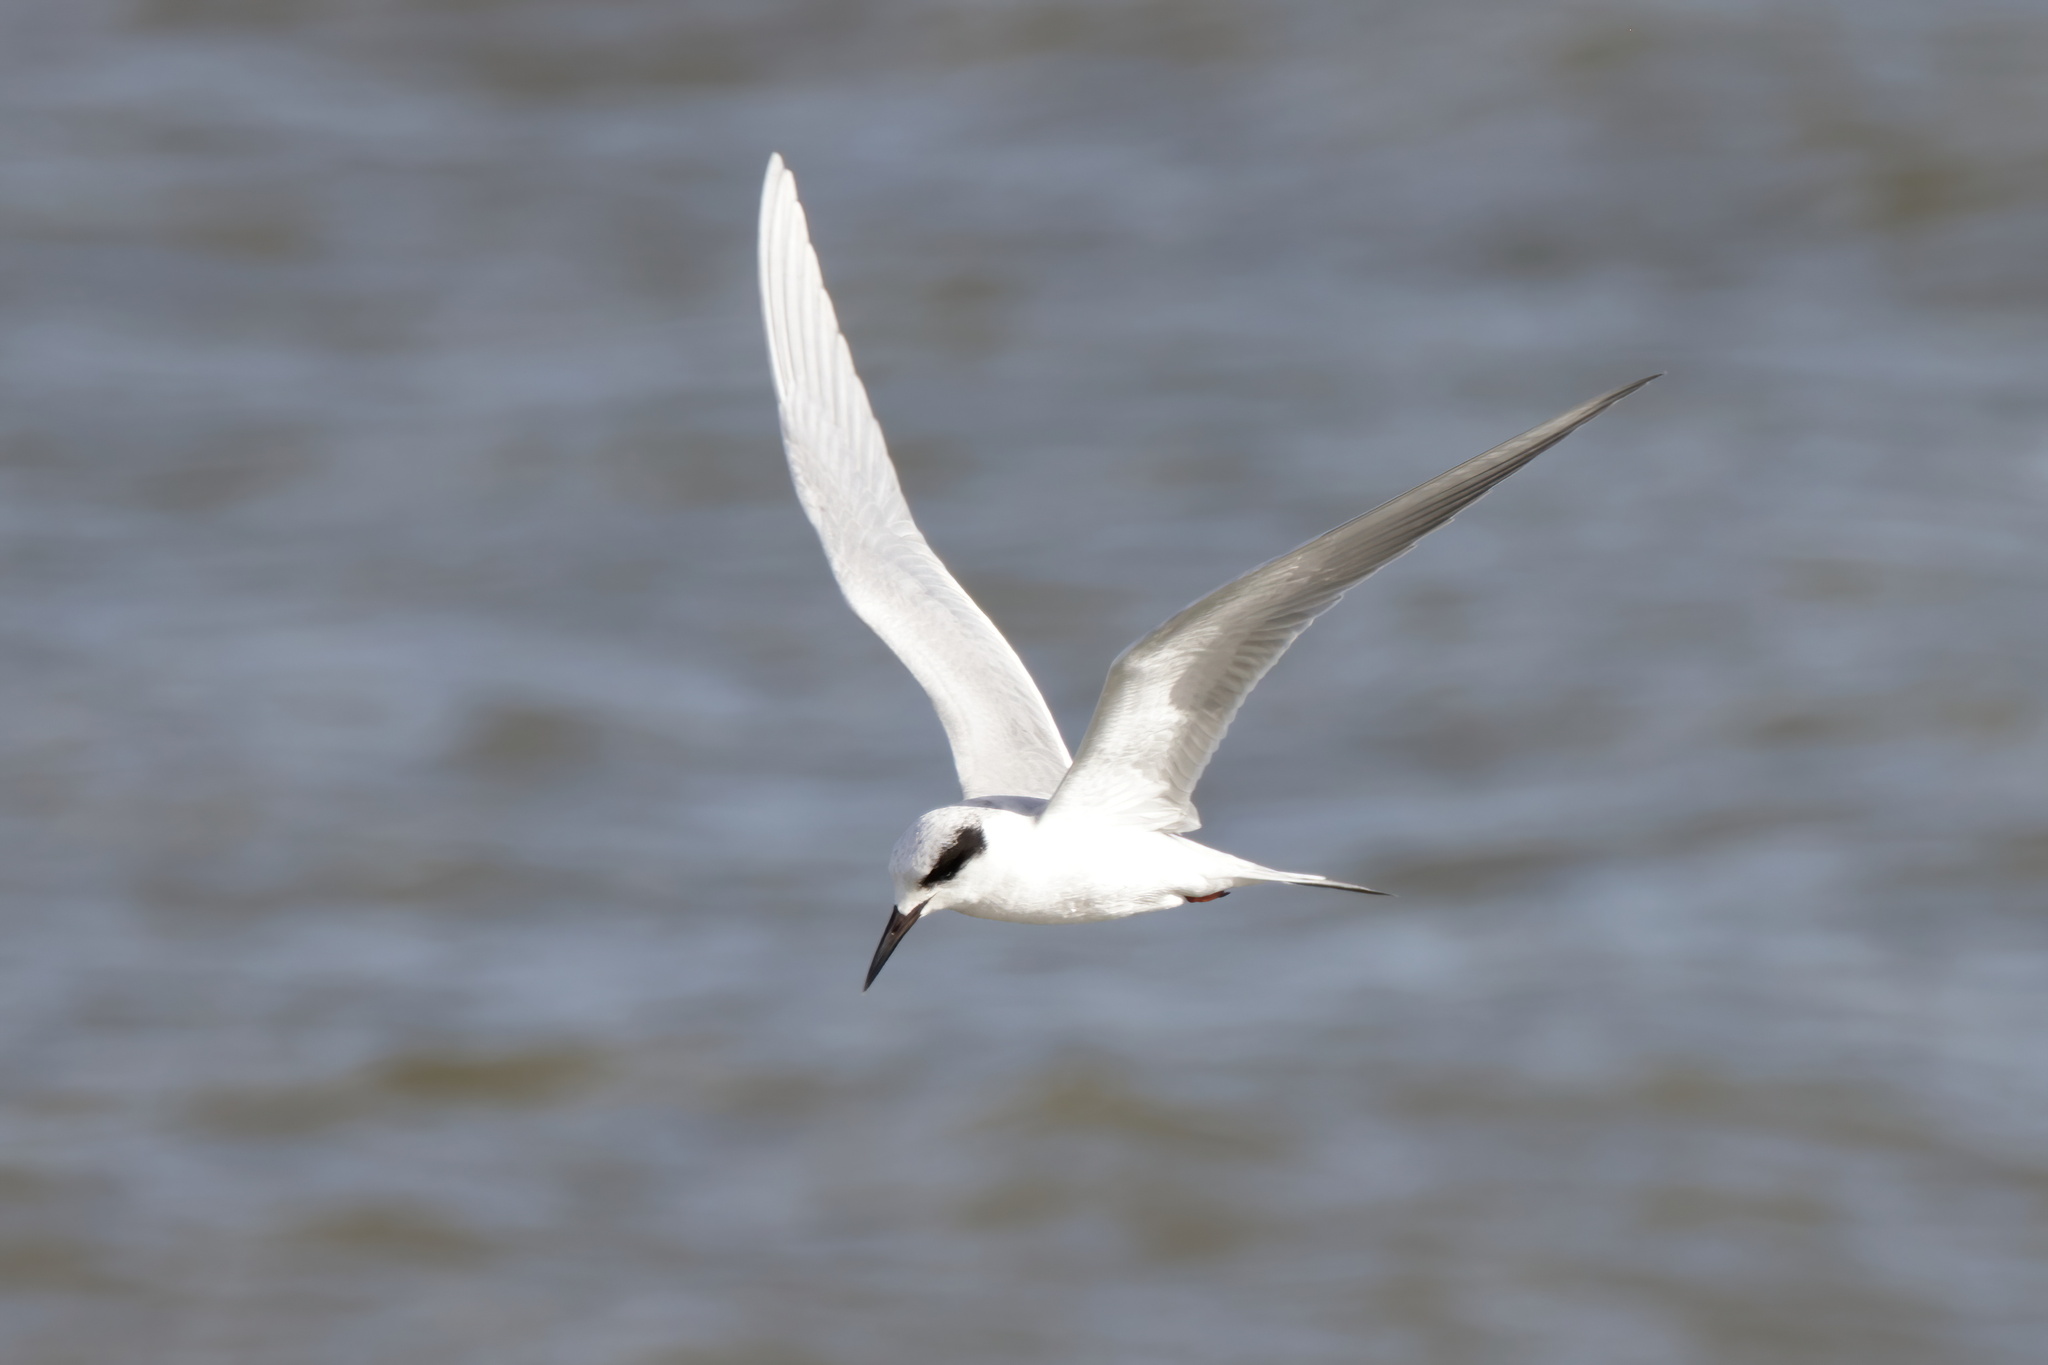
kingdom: Animalia
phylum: Chordata
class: Aves
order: Charadriiformes
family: Laridae
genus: Sterna
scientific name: Sterna forsteri
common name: Forster's tern
